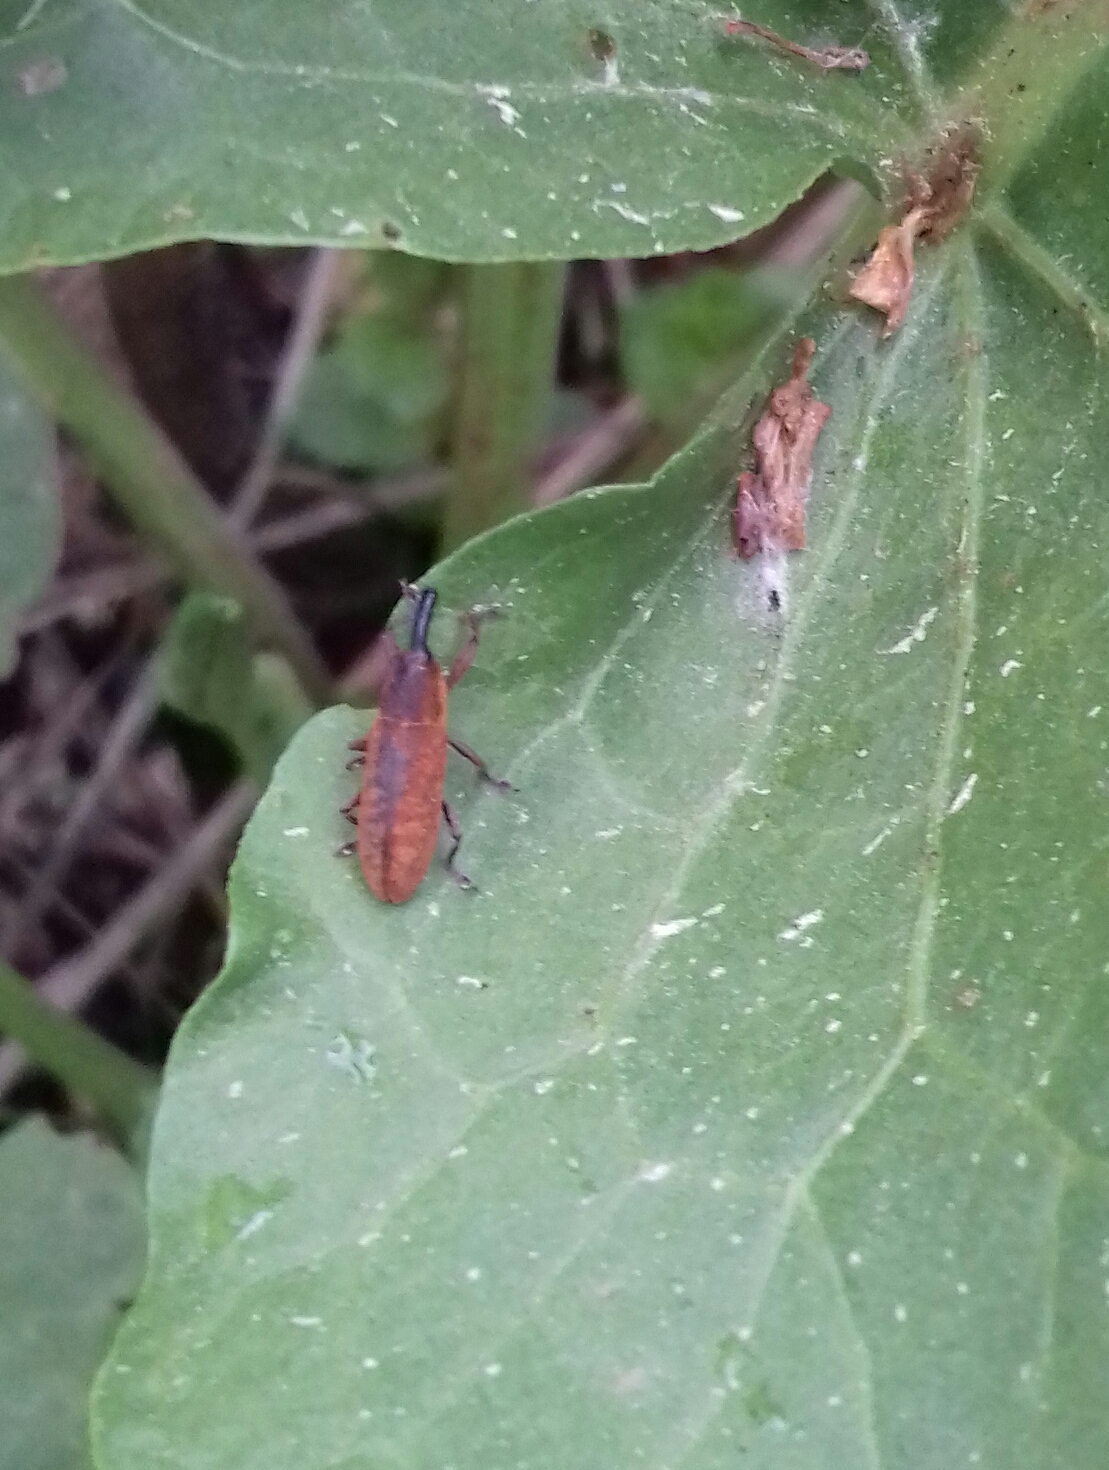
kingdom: Animalia
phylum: Arthropoda
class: Insecta
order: Coleoptera
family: Curculionidae
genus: Lixus
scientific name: Lixus bardanae
